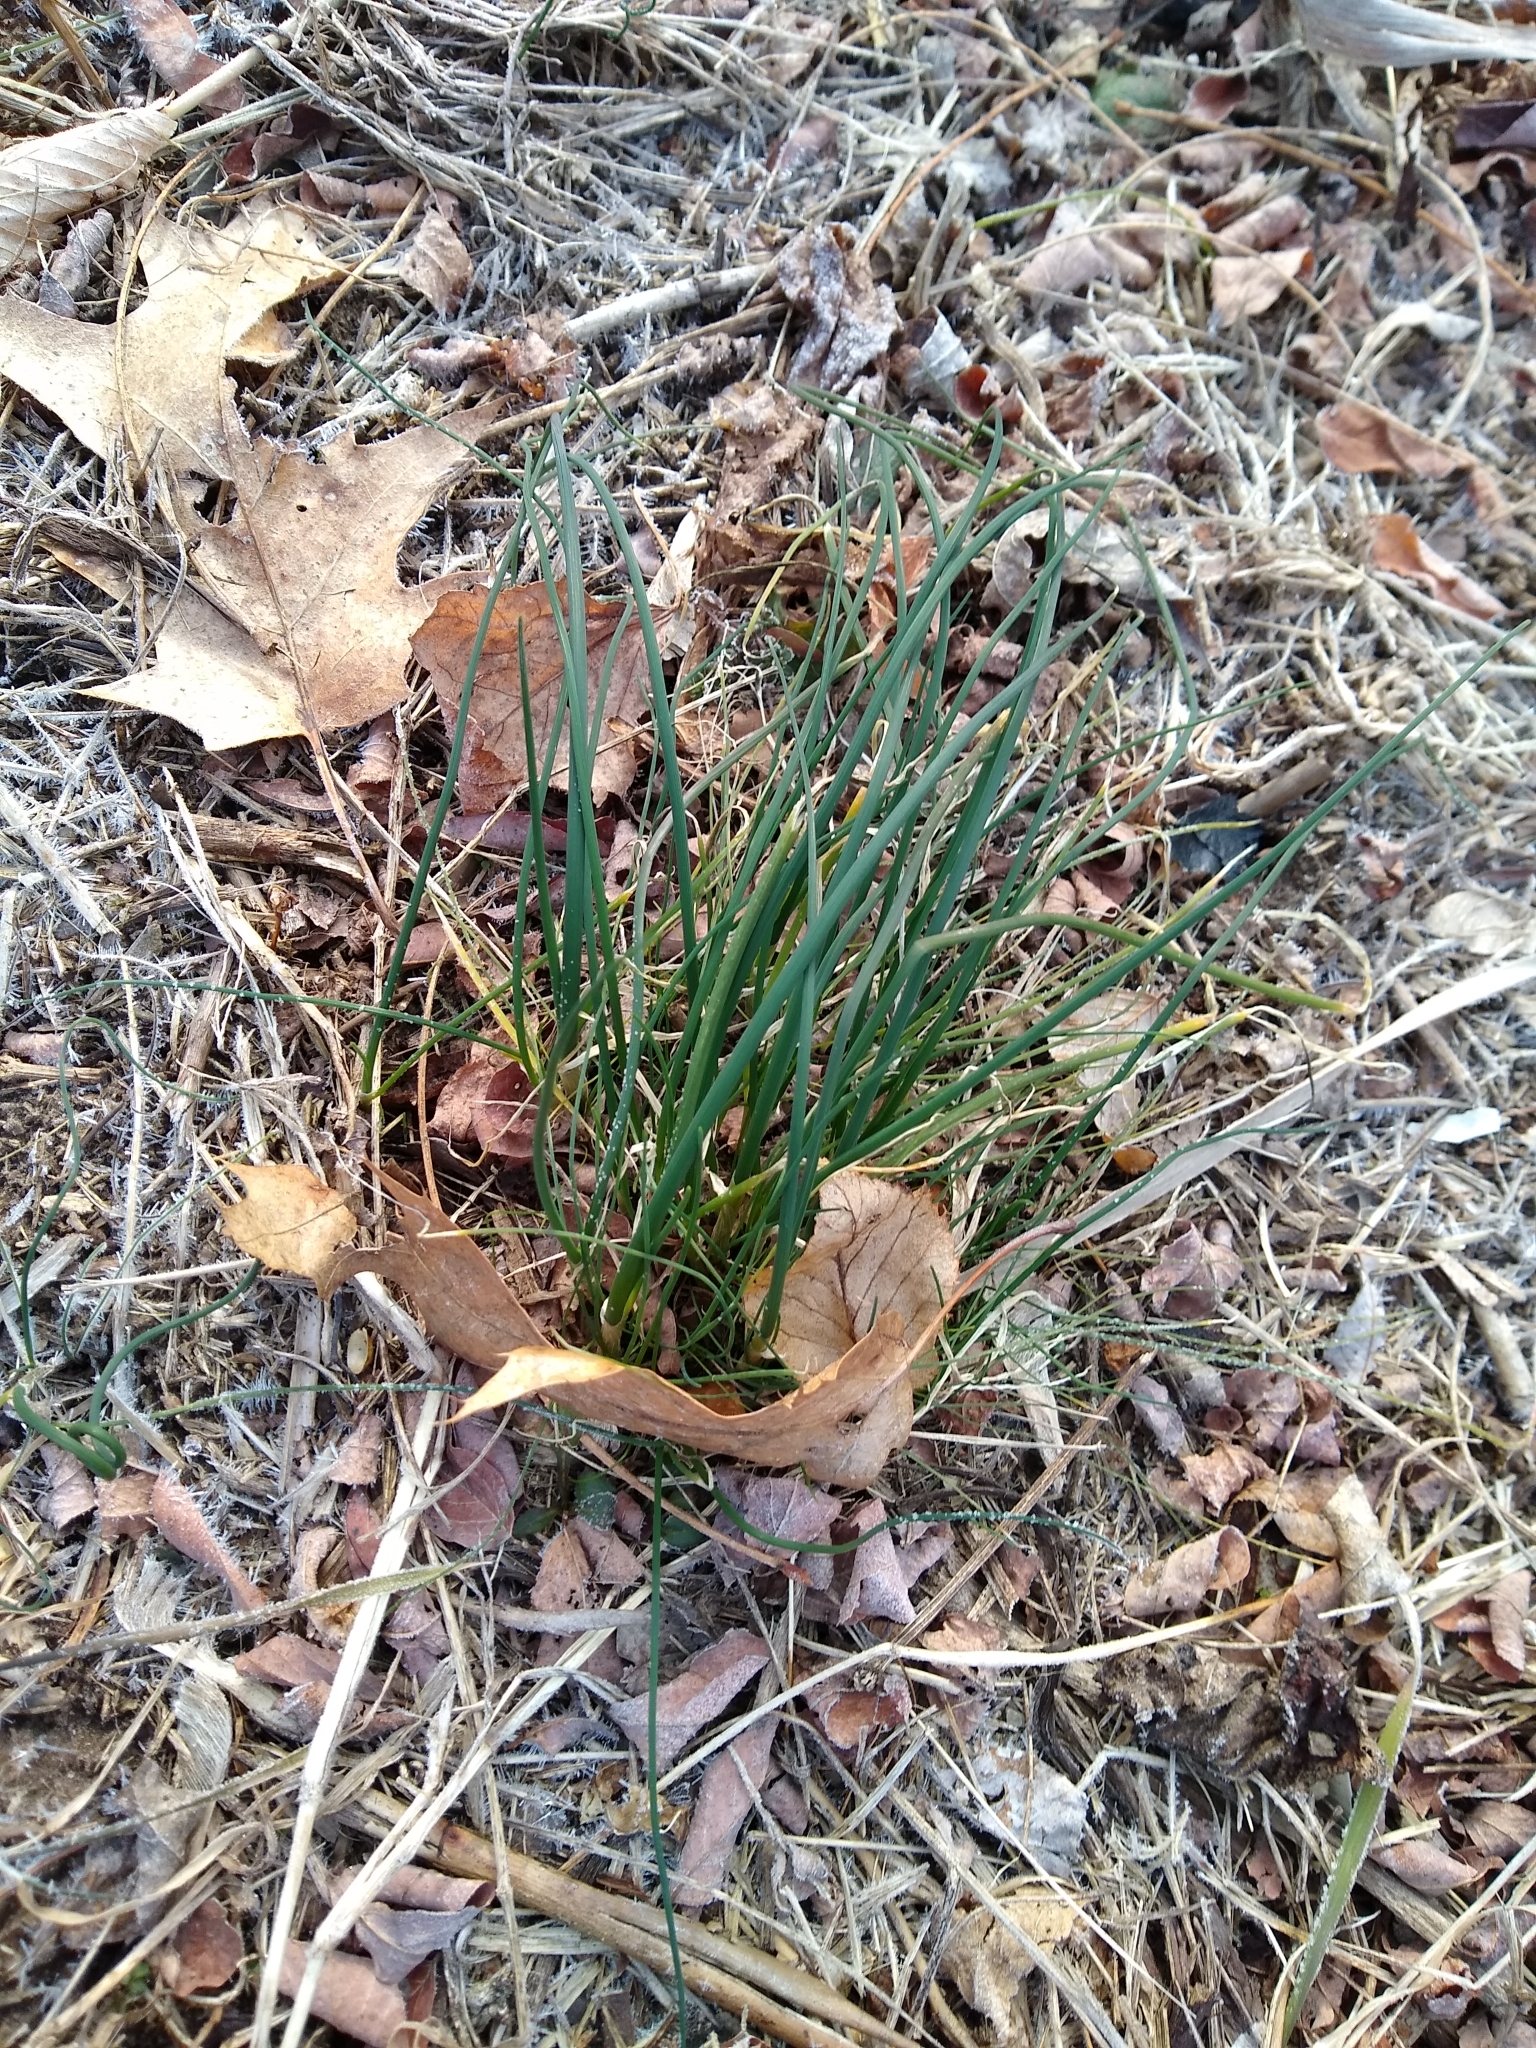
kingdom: Plantae
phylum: Tracheophyta
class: Liliopsida
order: Asparagales
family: Amaryllidaceae
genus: Allium
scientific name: Allium vineale
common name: Crow garlic
